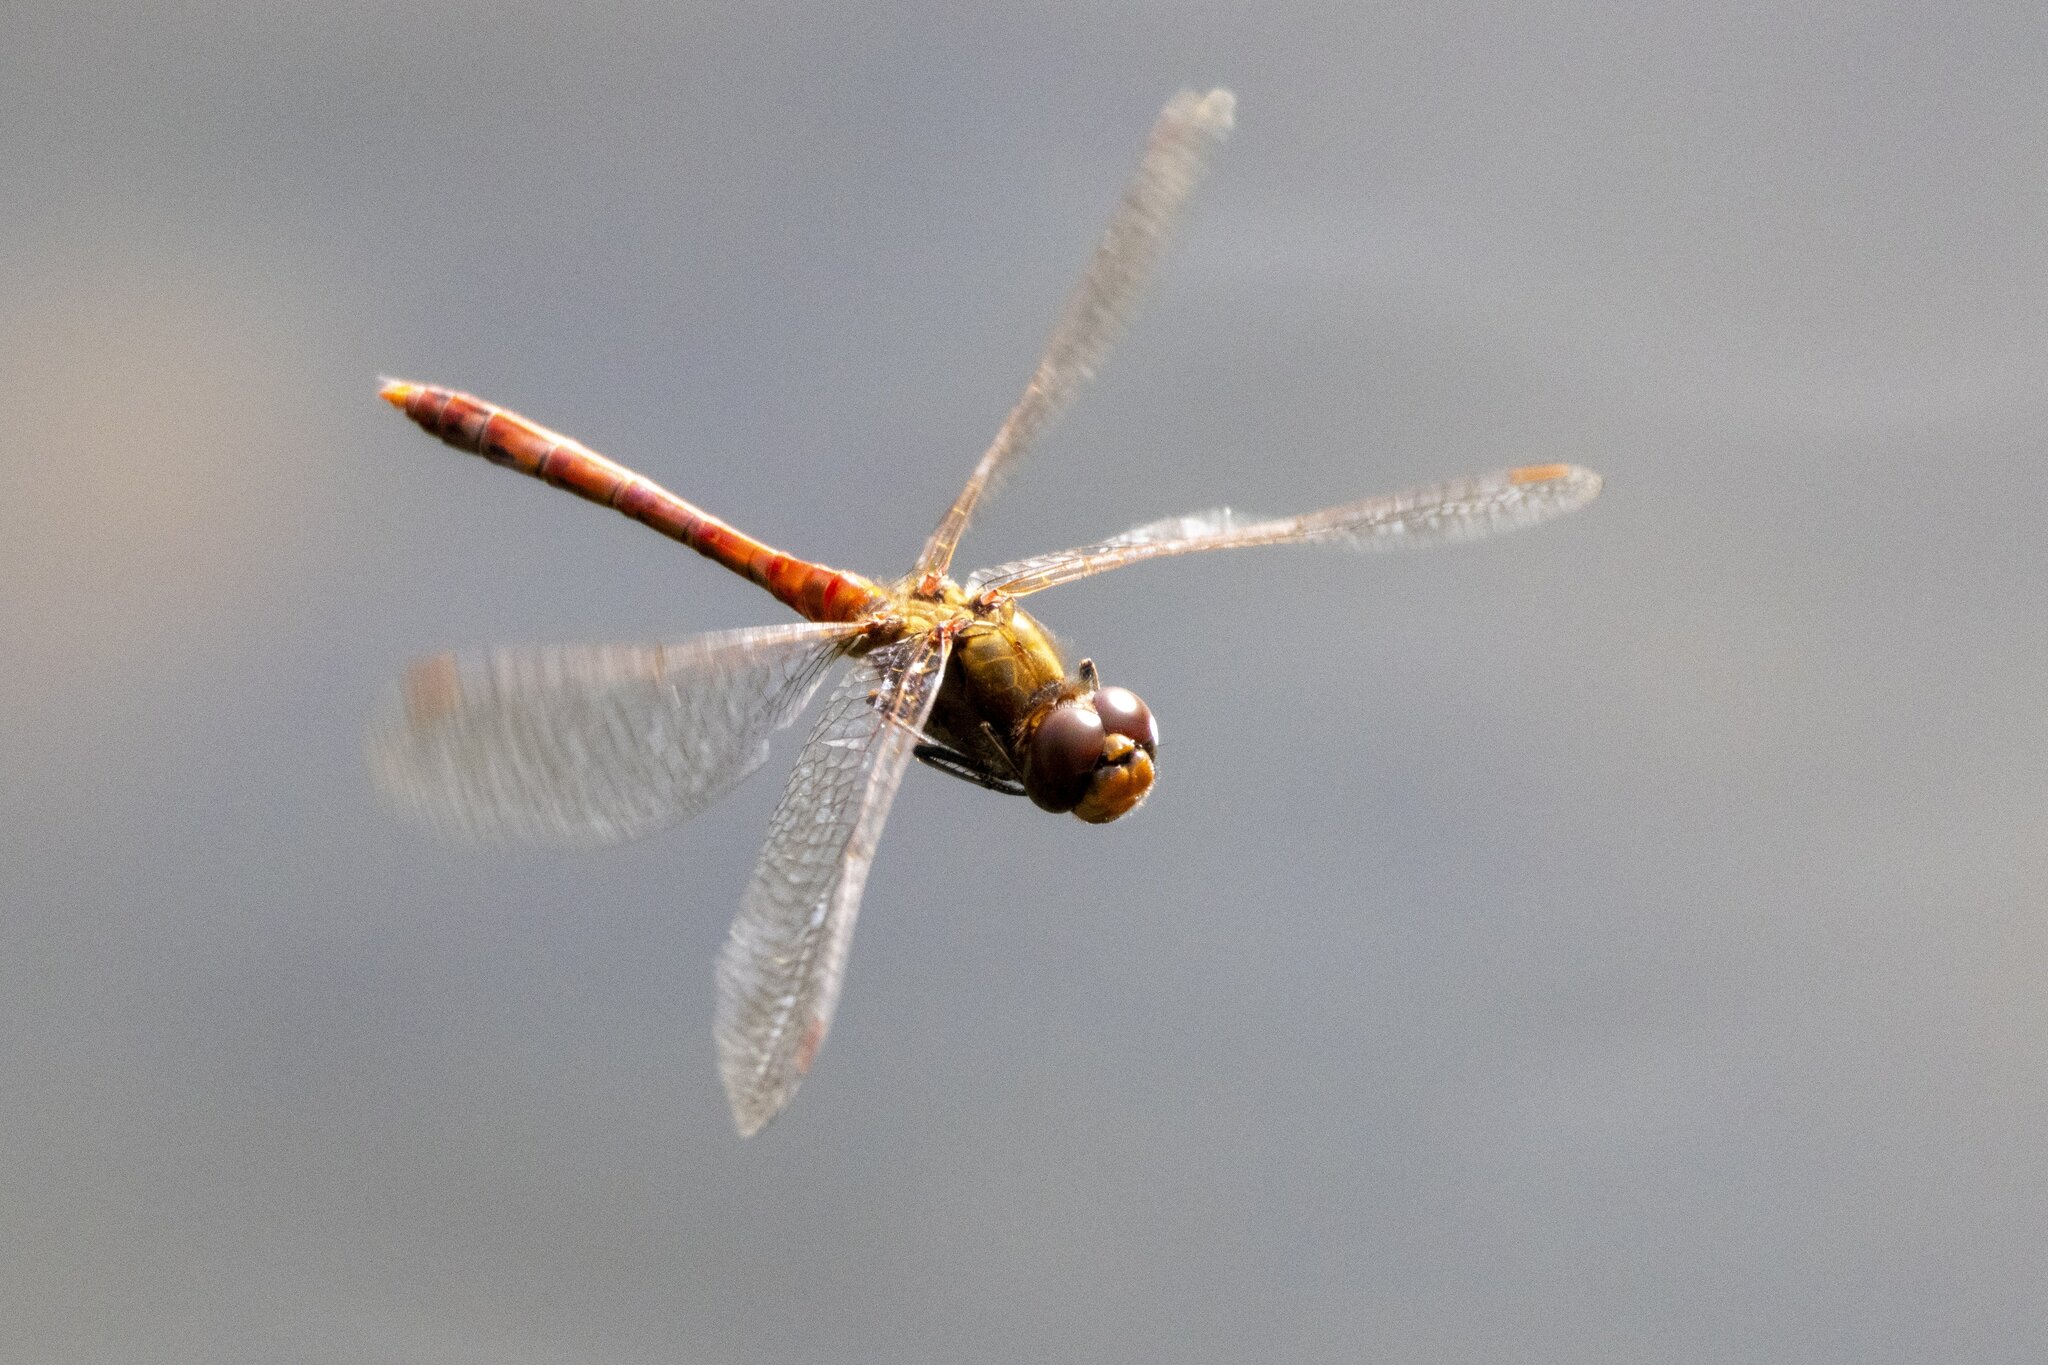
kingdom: Animalia
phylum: Arthropoda
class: Insecta
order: Odonata
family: Libellulidae
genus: Sympetrum
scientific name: Sympetrum striolatum
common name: Common darter
